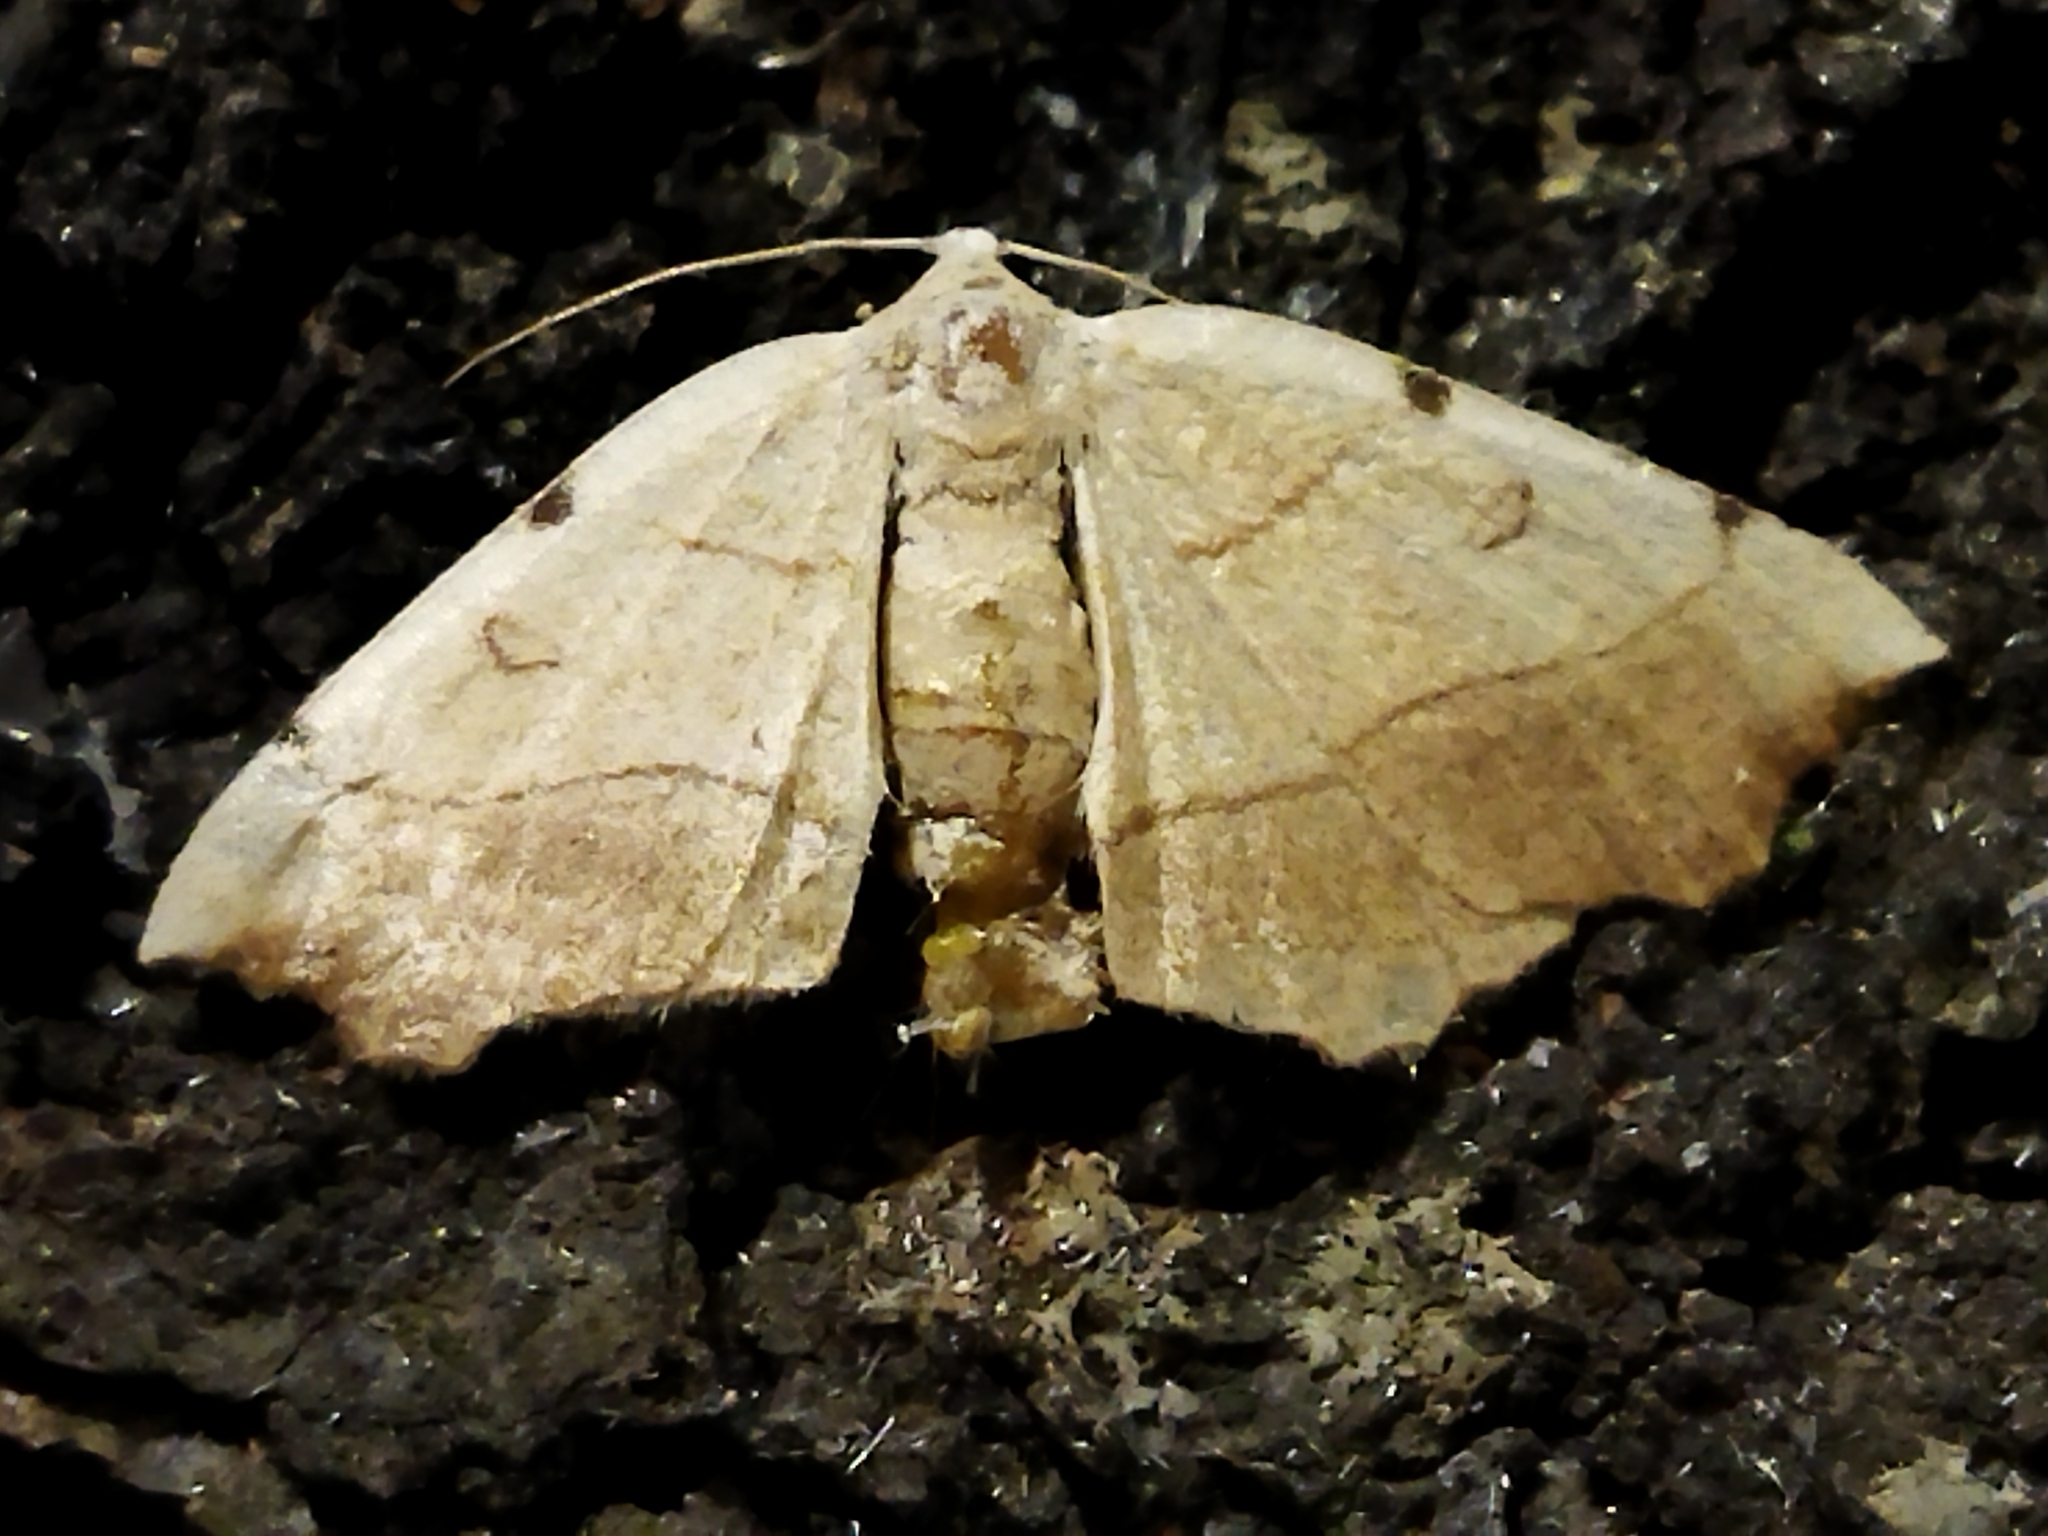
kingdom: Animalia
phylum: Arthropoda
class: Insecta
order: Lepidoptera
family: Geometridae
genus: Eilicrinia
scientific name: Eilicrinia trinotata
